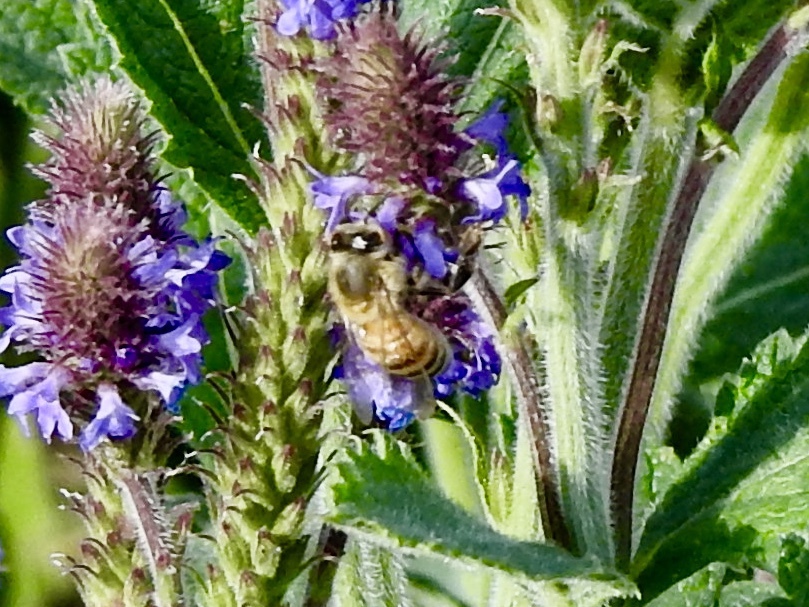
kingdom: Animalia
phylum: Arthropoda
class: Insecta
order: Hymenoptera
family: Apidae
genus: Apis
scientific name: Apis mellifera
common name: Honey bee
